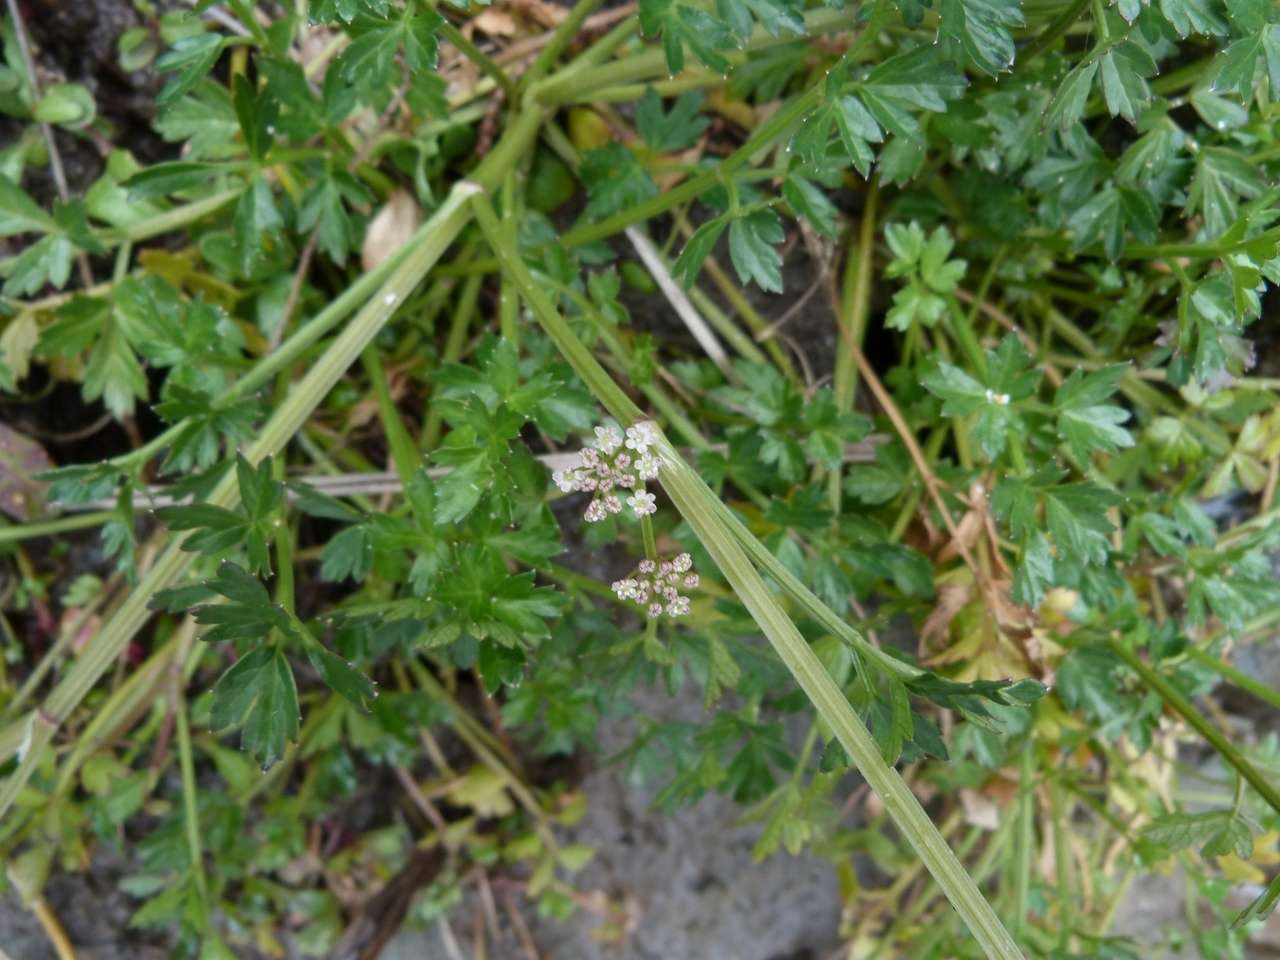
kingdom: Plantae
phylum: Tracheophyta
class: Magnoliopsida
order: Apiales
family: Apiaceae
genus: Apium
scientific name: Apium prostratum
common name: Prostrate marshwort
